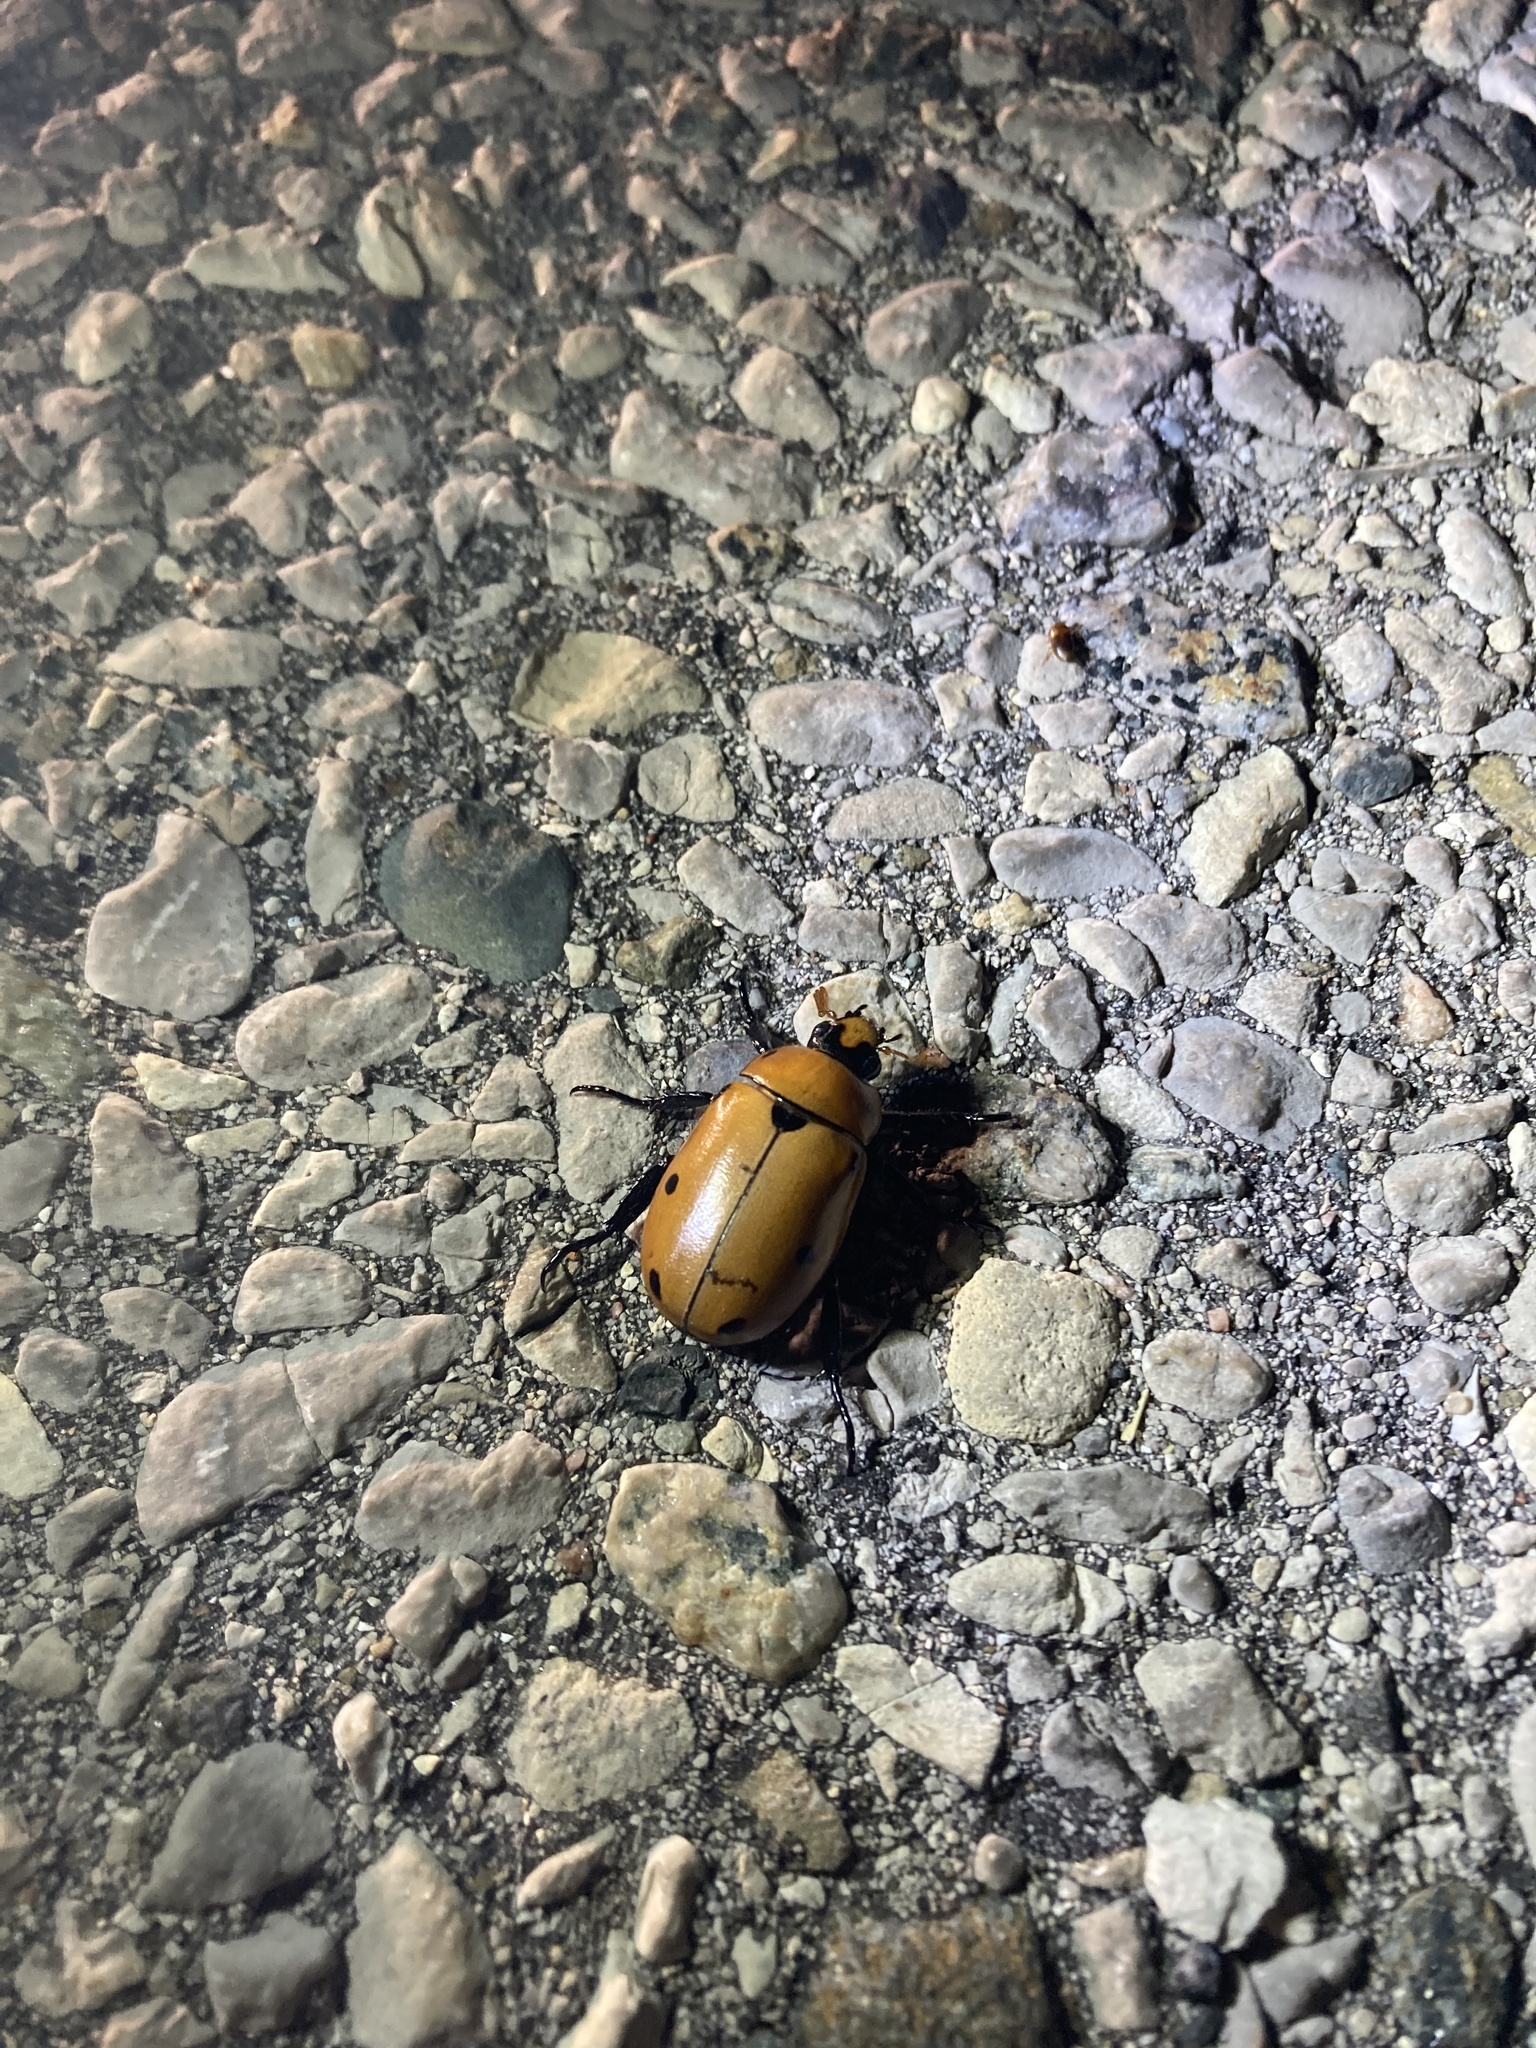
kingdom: Animalia
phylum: Arthropoda
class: Insecta
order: Coleoptera
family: Scarabaeidae
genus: Pelidnota
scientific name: Pelidnota punctata
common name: Grapevine beetle
